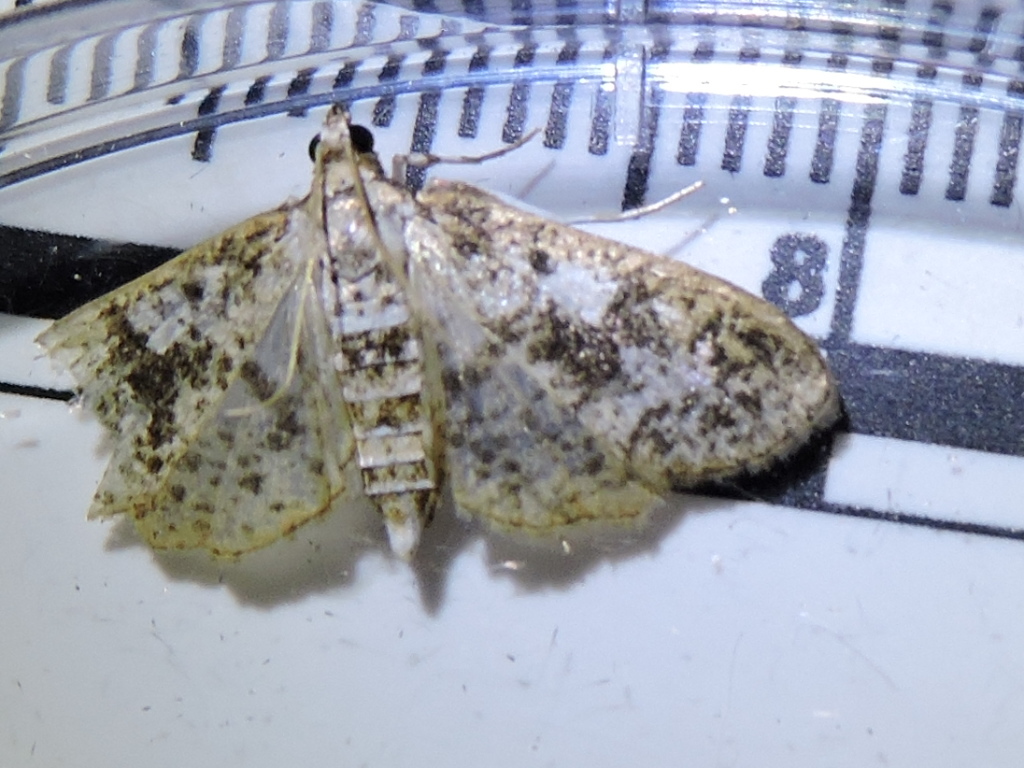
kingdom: Animalia
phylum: Arthropoda
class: Insecta
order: Lepidoptera
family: Crambidae
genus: Palpita
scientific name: Palpita freemanalis
